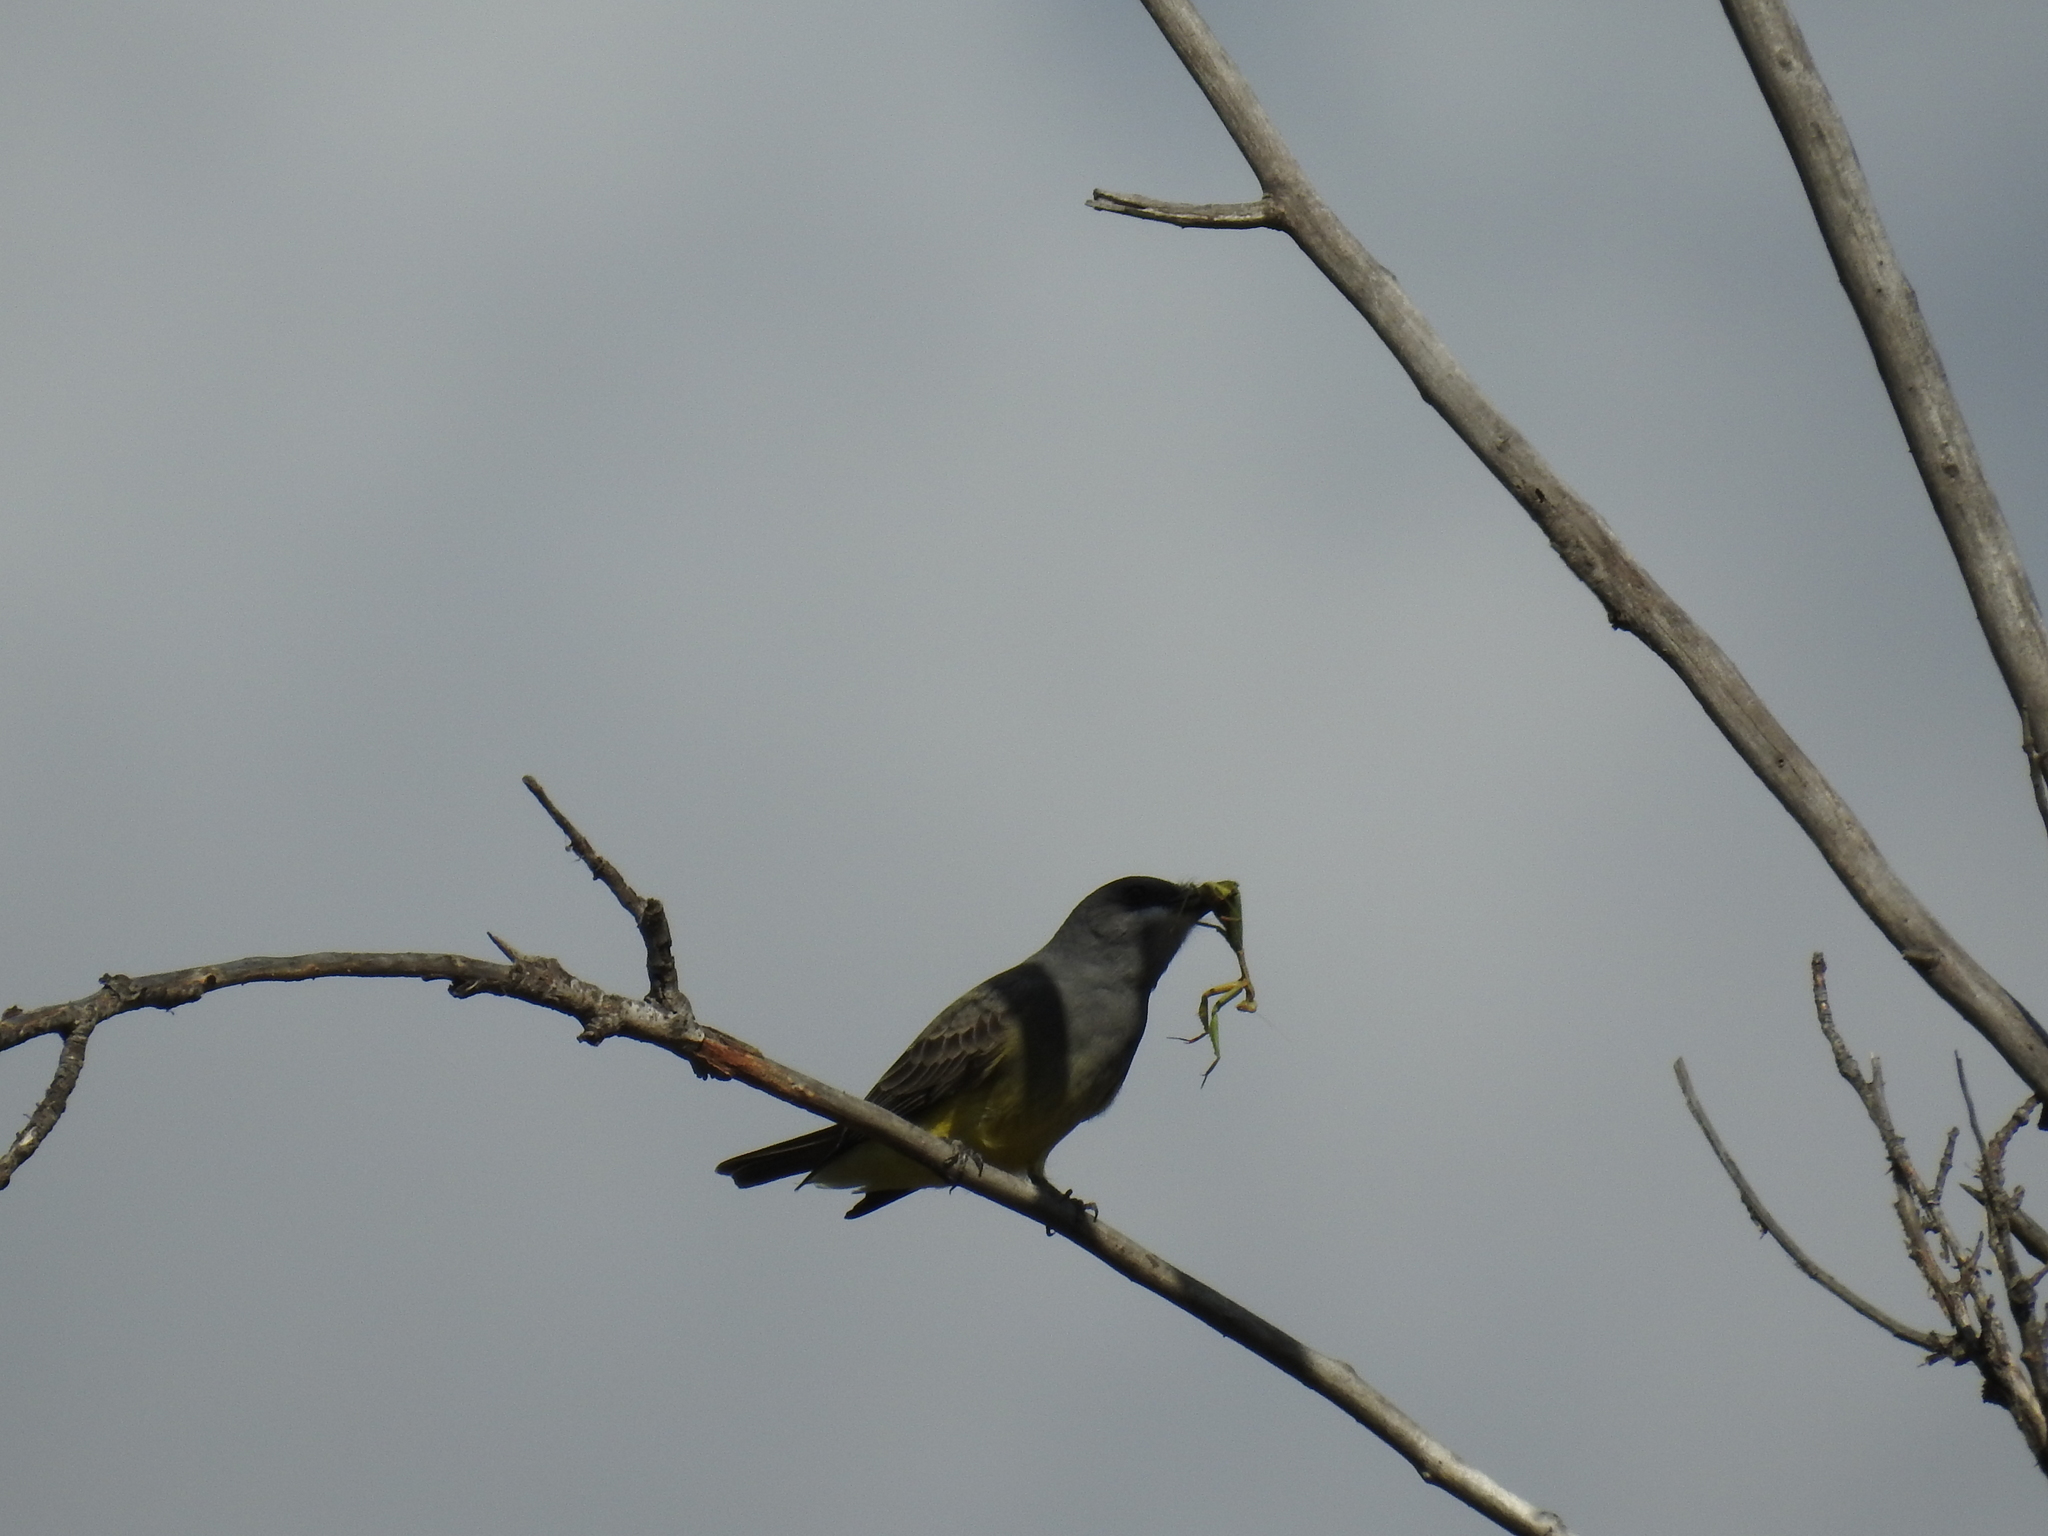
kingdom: Animalia
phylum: Chordata
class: Aves
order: Passeriformes
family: Tyrannidae
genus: Tyrannus
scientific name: Tyrannus vociferans
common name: Cassin's kingbird
